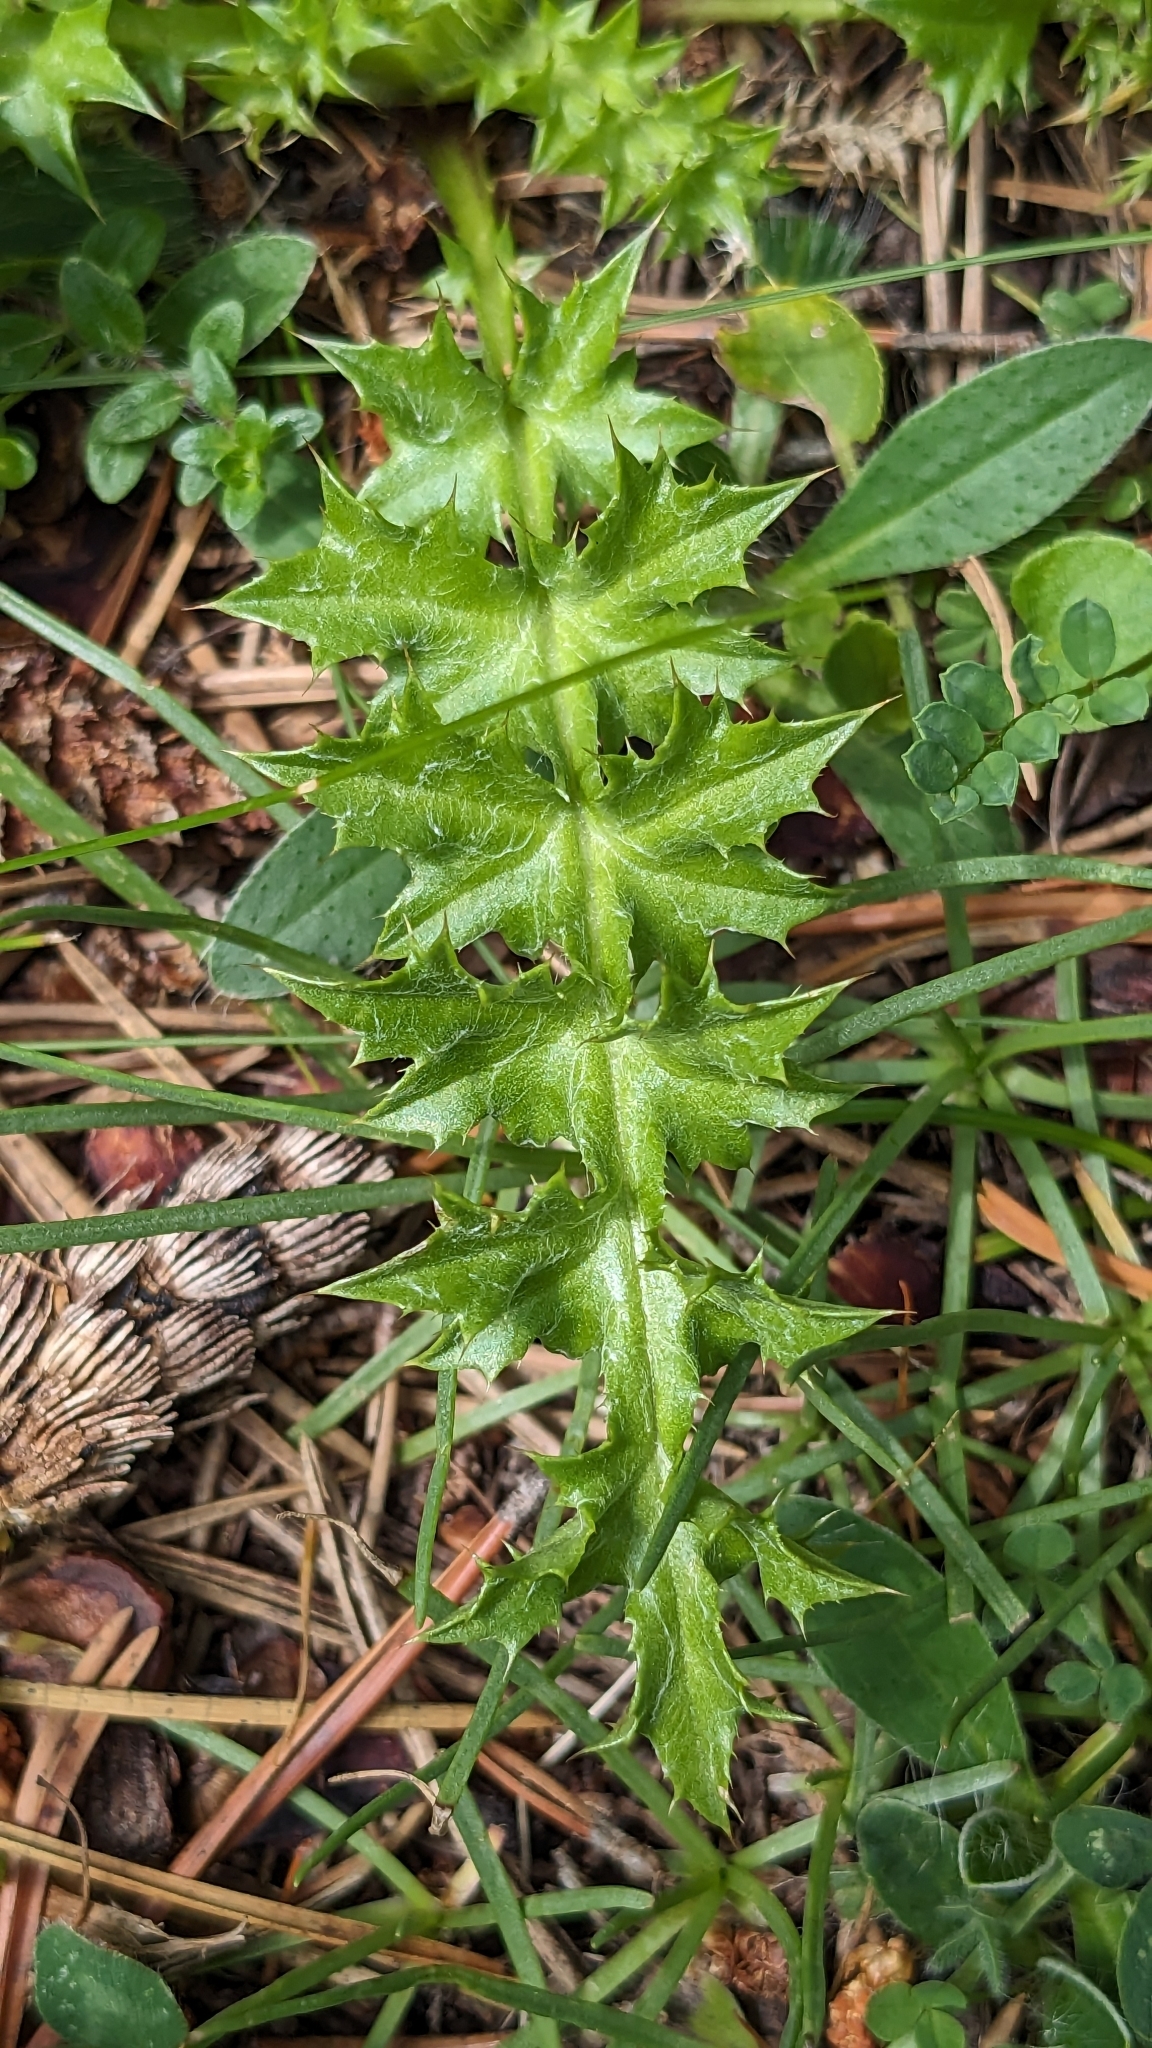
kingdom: Plantae
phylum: Tracheophyta
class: Magnoliopsida
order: Asterales
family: Asteraceae
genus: Carlina
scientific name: Carlina acaulis
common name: Stemless carline thistle
